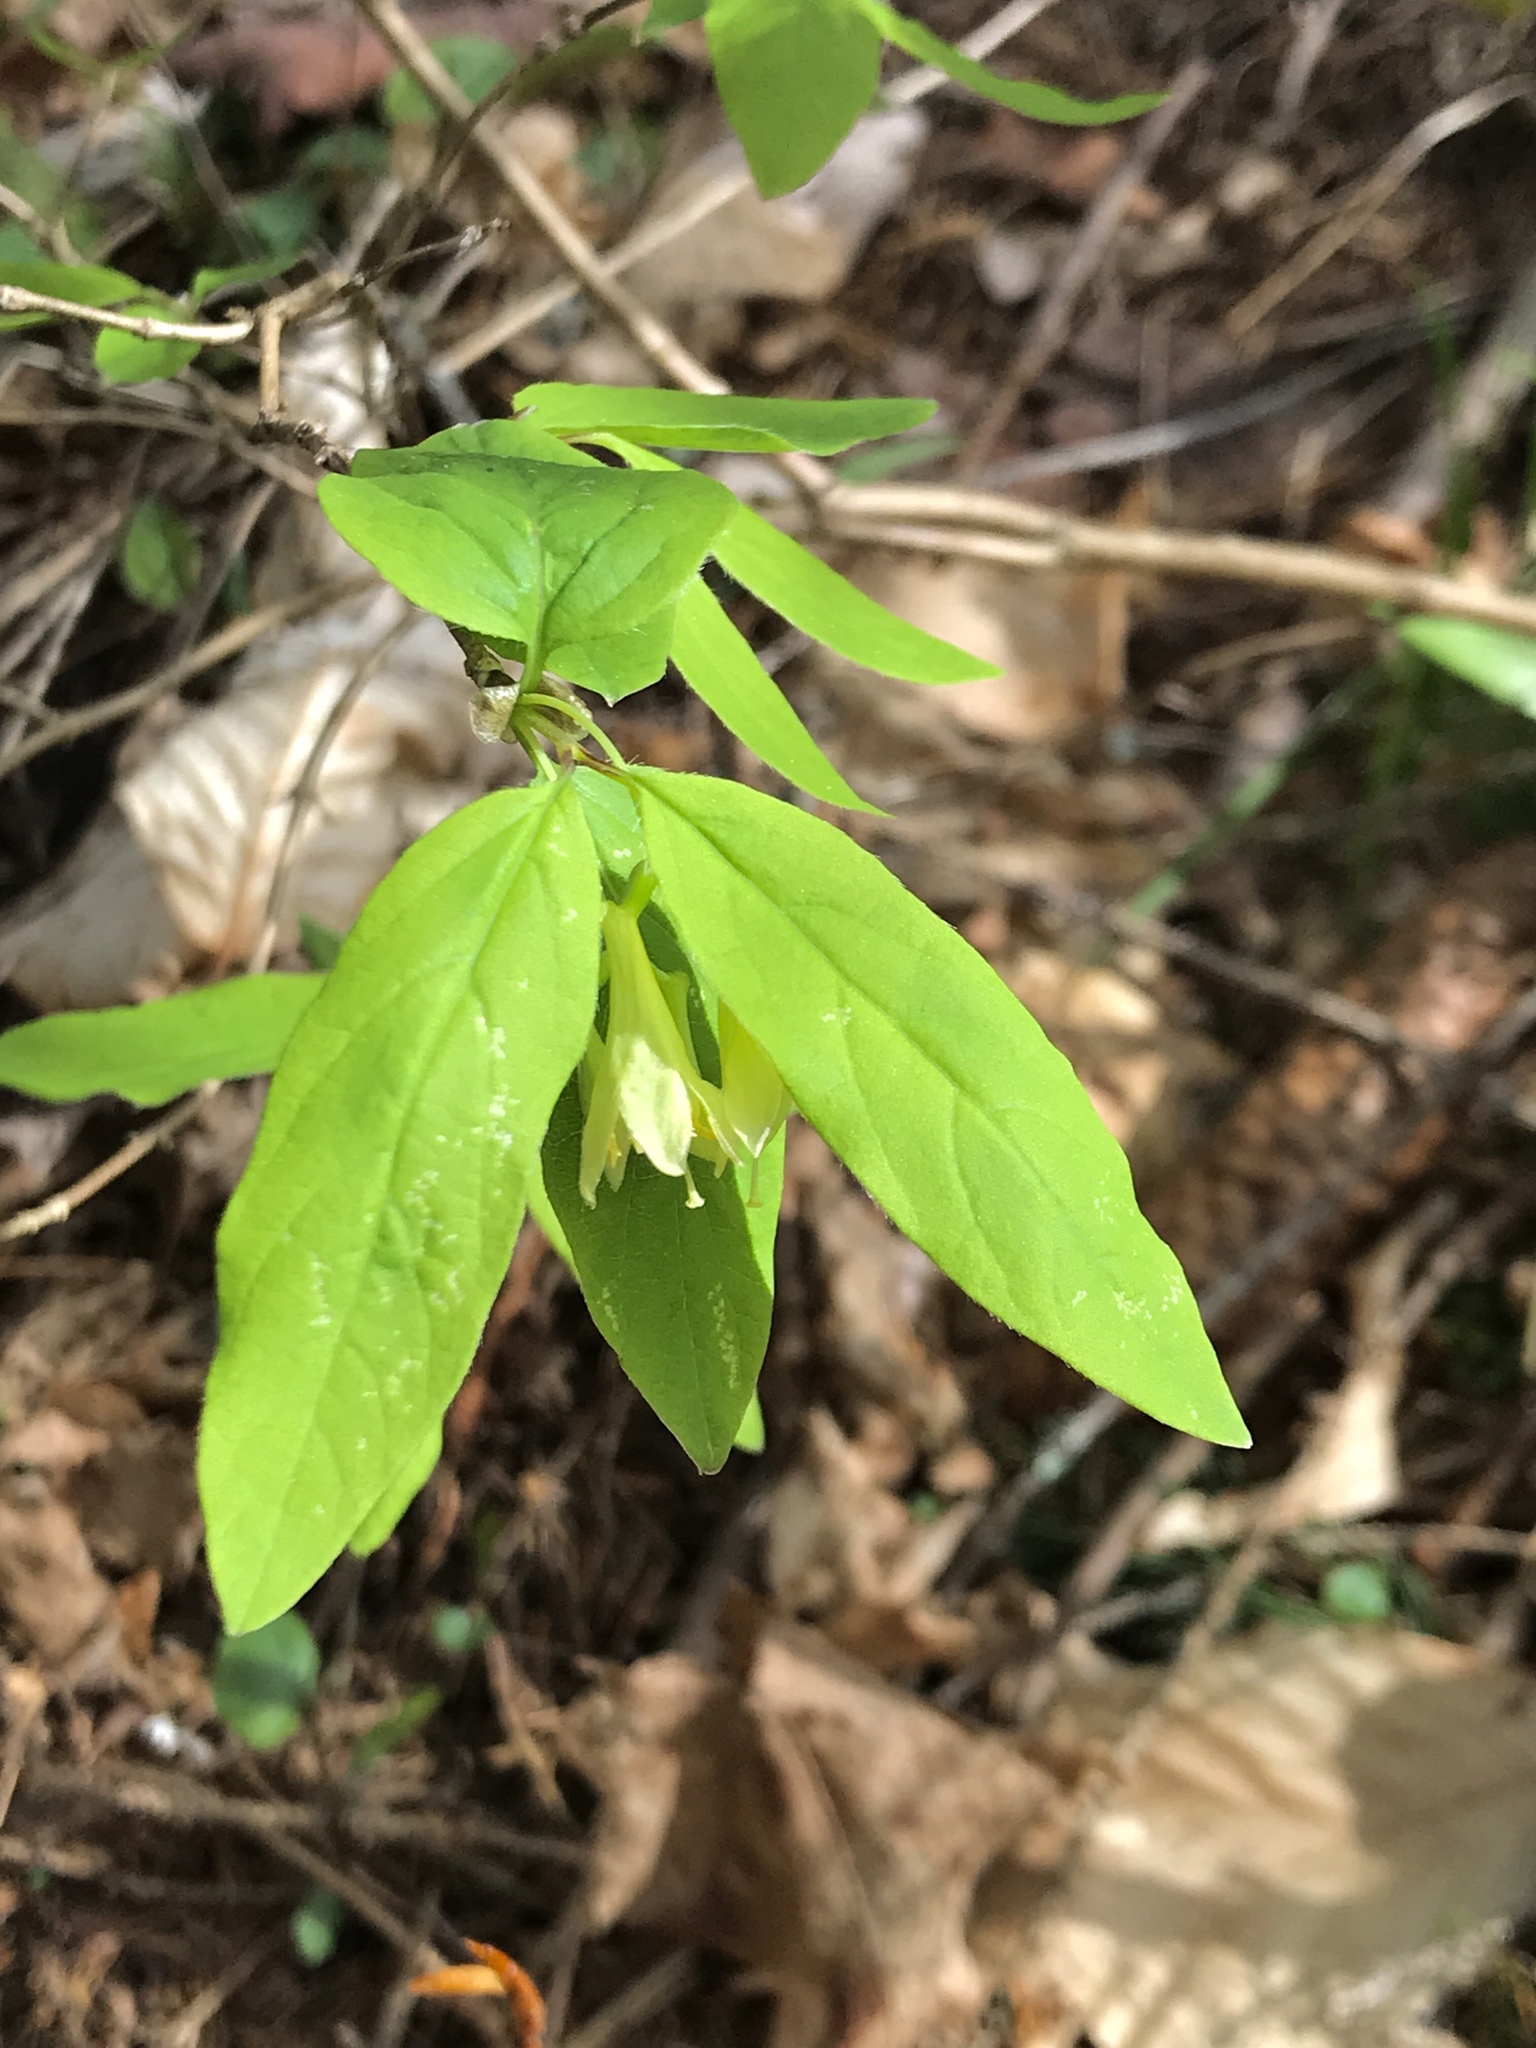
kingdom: Plantae
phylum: Tracheophyta
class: Magnoliopsida
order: Dipsacales
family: Caprifoliaceae
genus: Lonicera
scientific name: Lonicera canadensis
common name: American fly-honeysuckle
